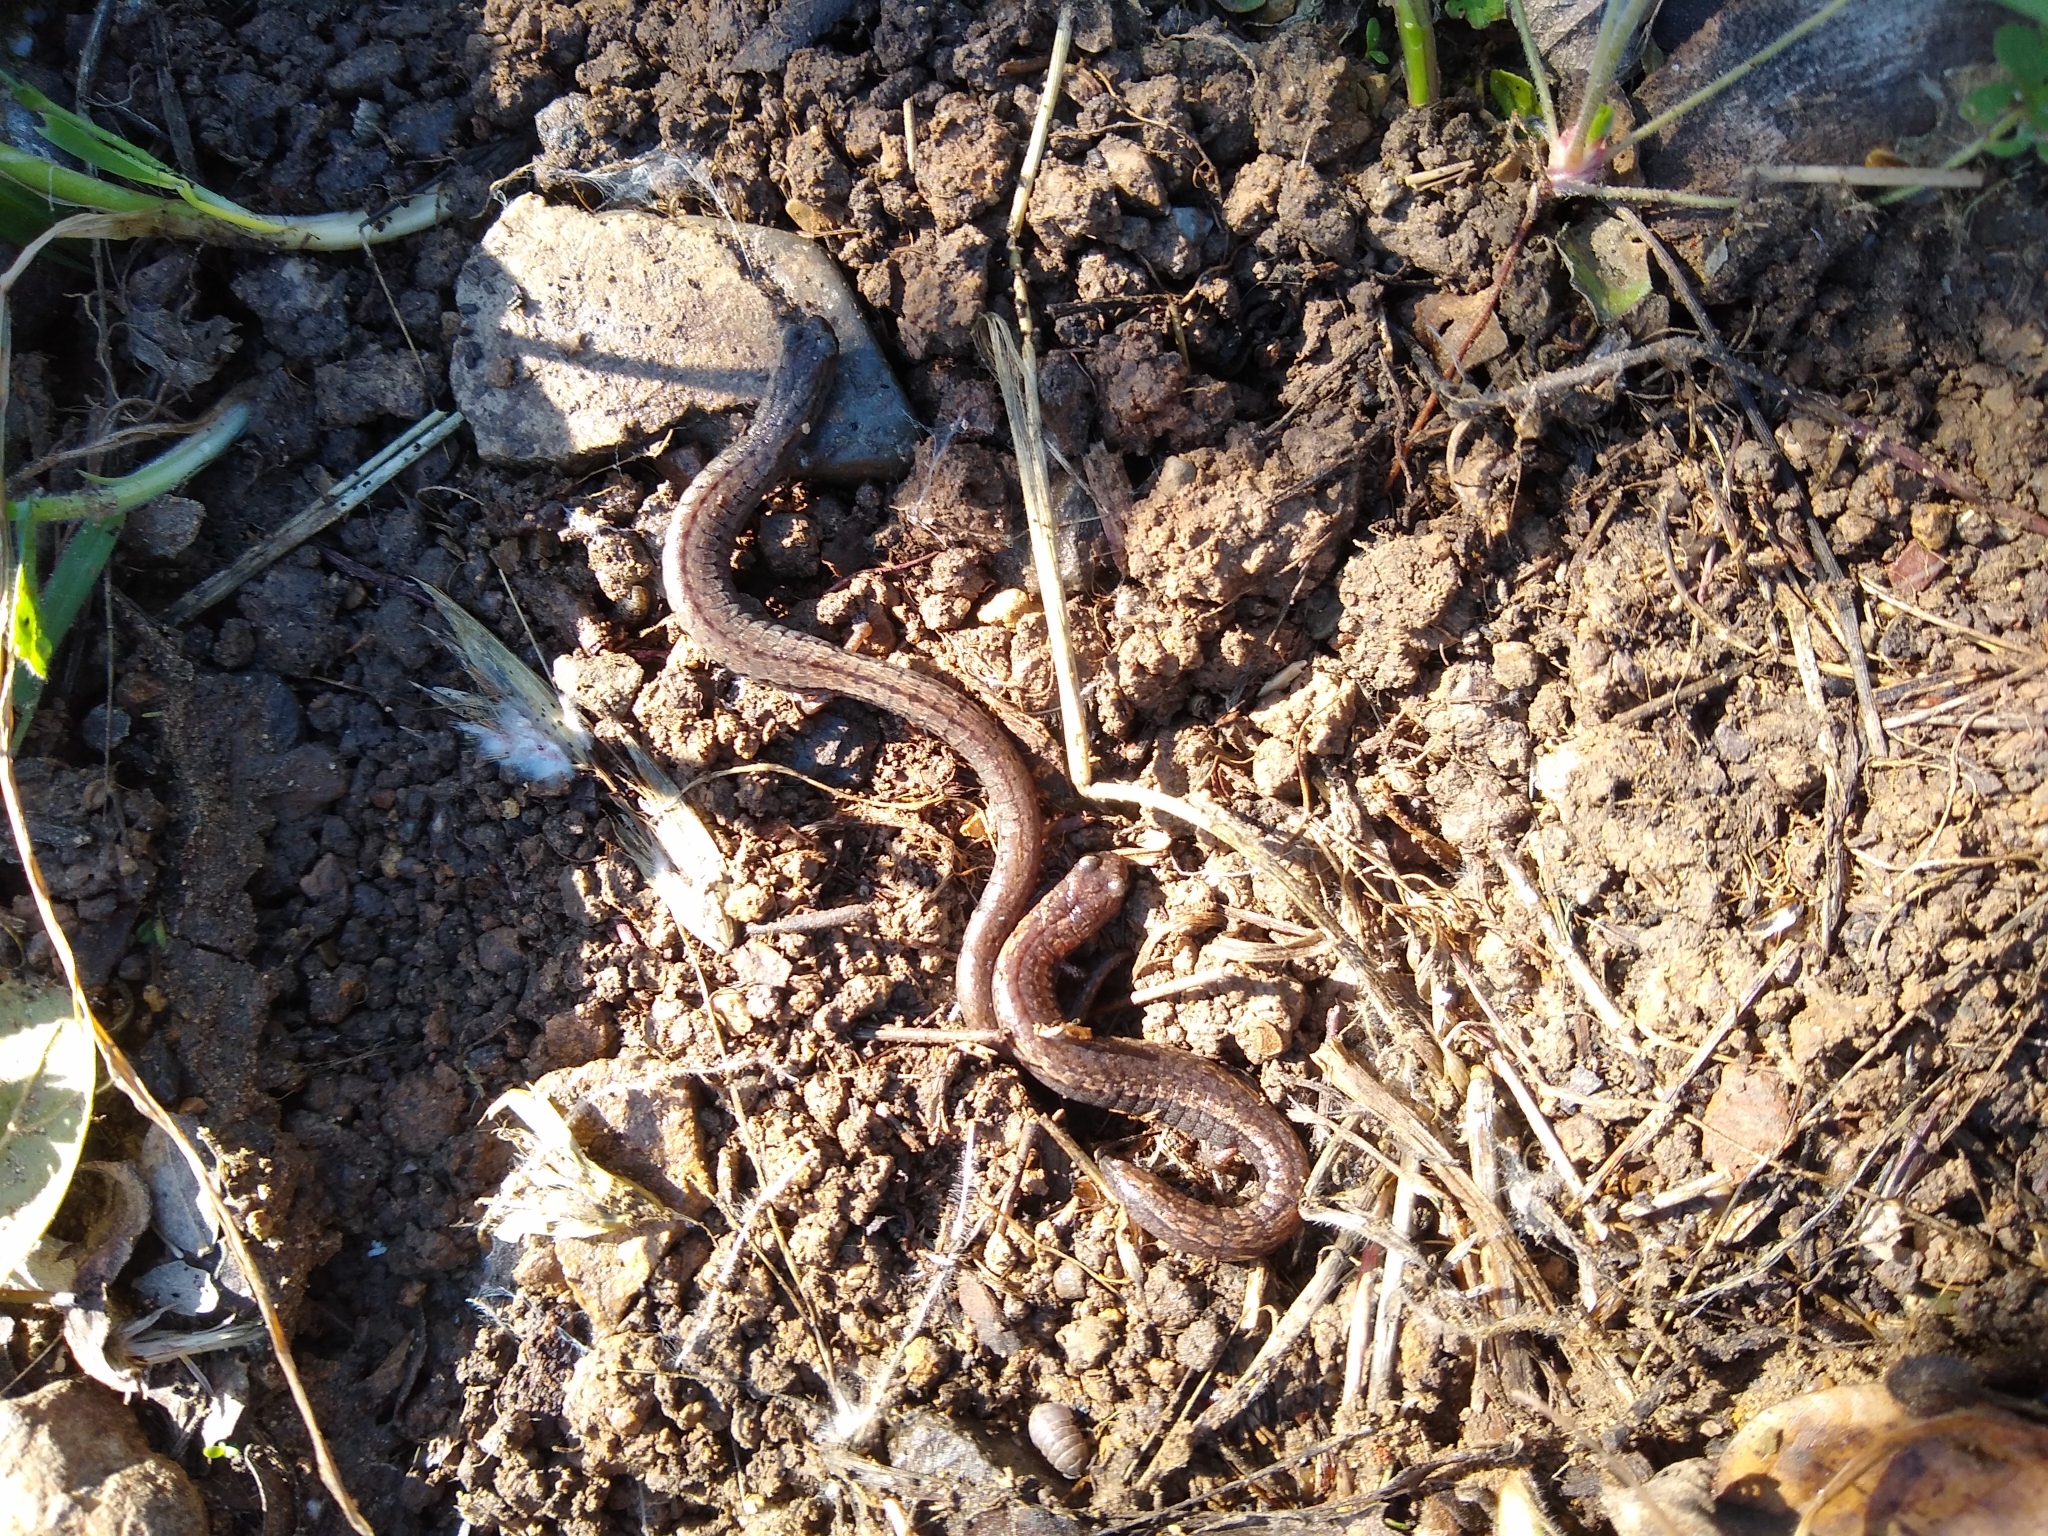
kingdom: Animalia
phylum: Chordata
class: Amphibia
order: Caudata
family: Plethodontidae
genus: Batrachoseps
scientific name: Batrachoseps attenuatus
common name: California slender salamander
